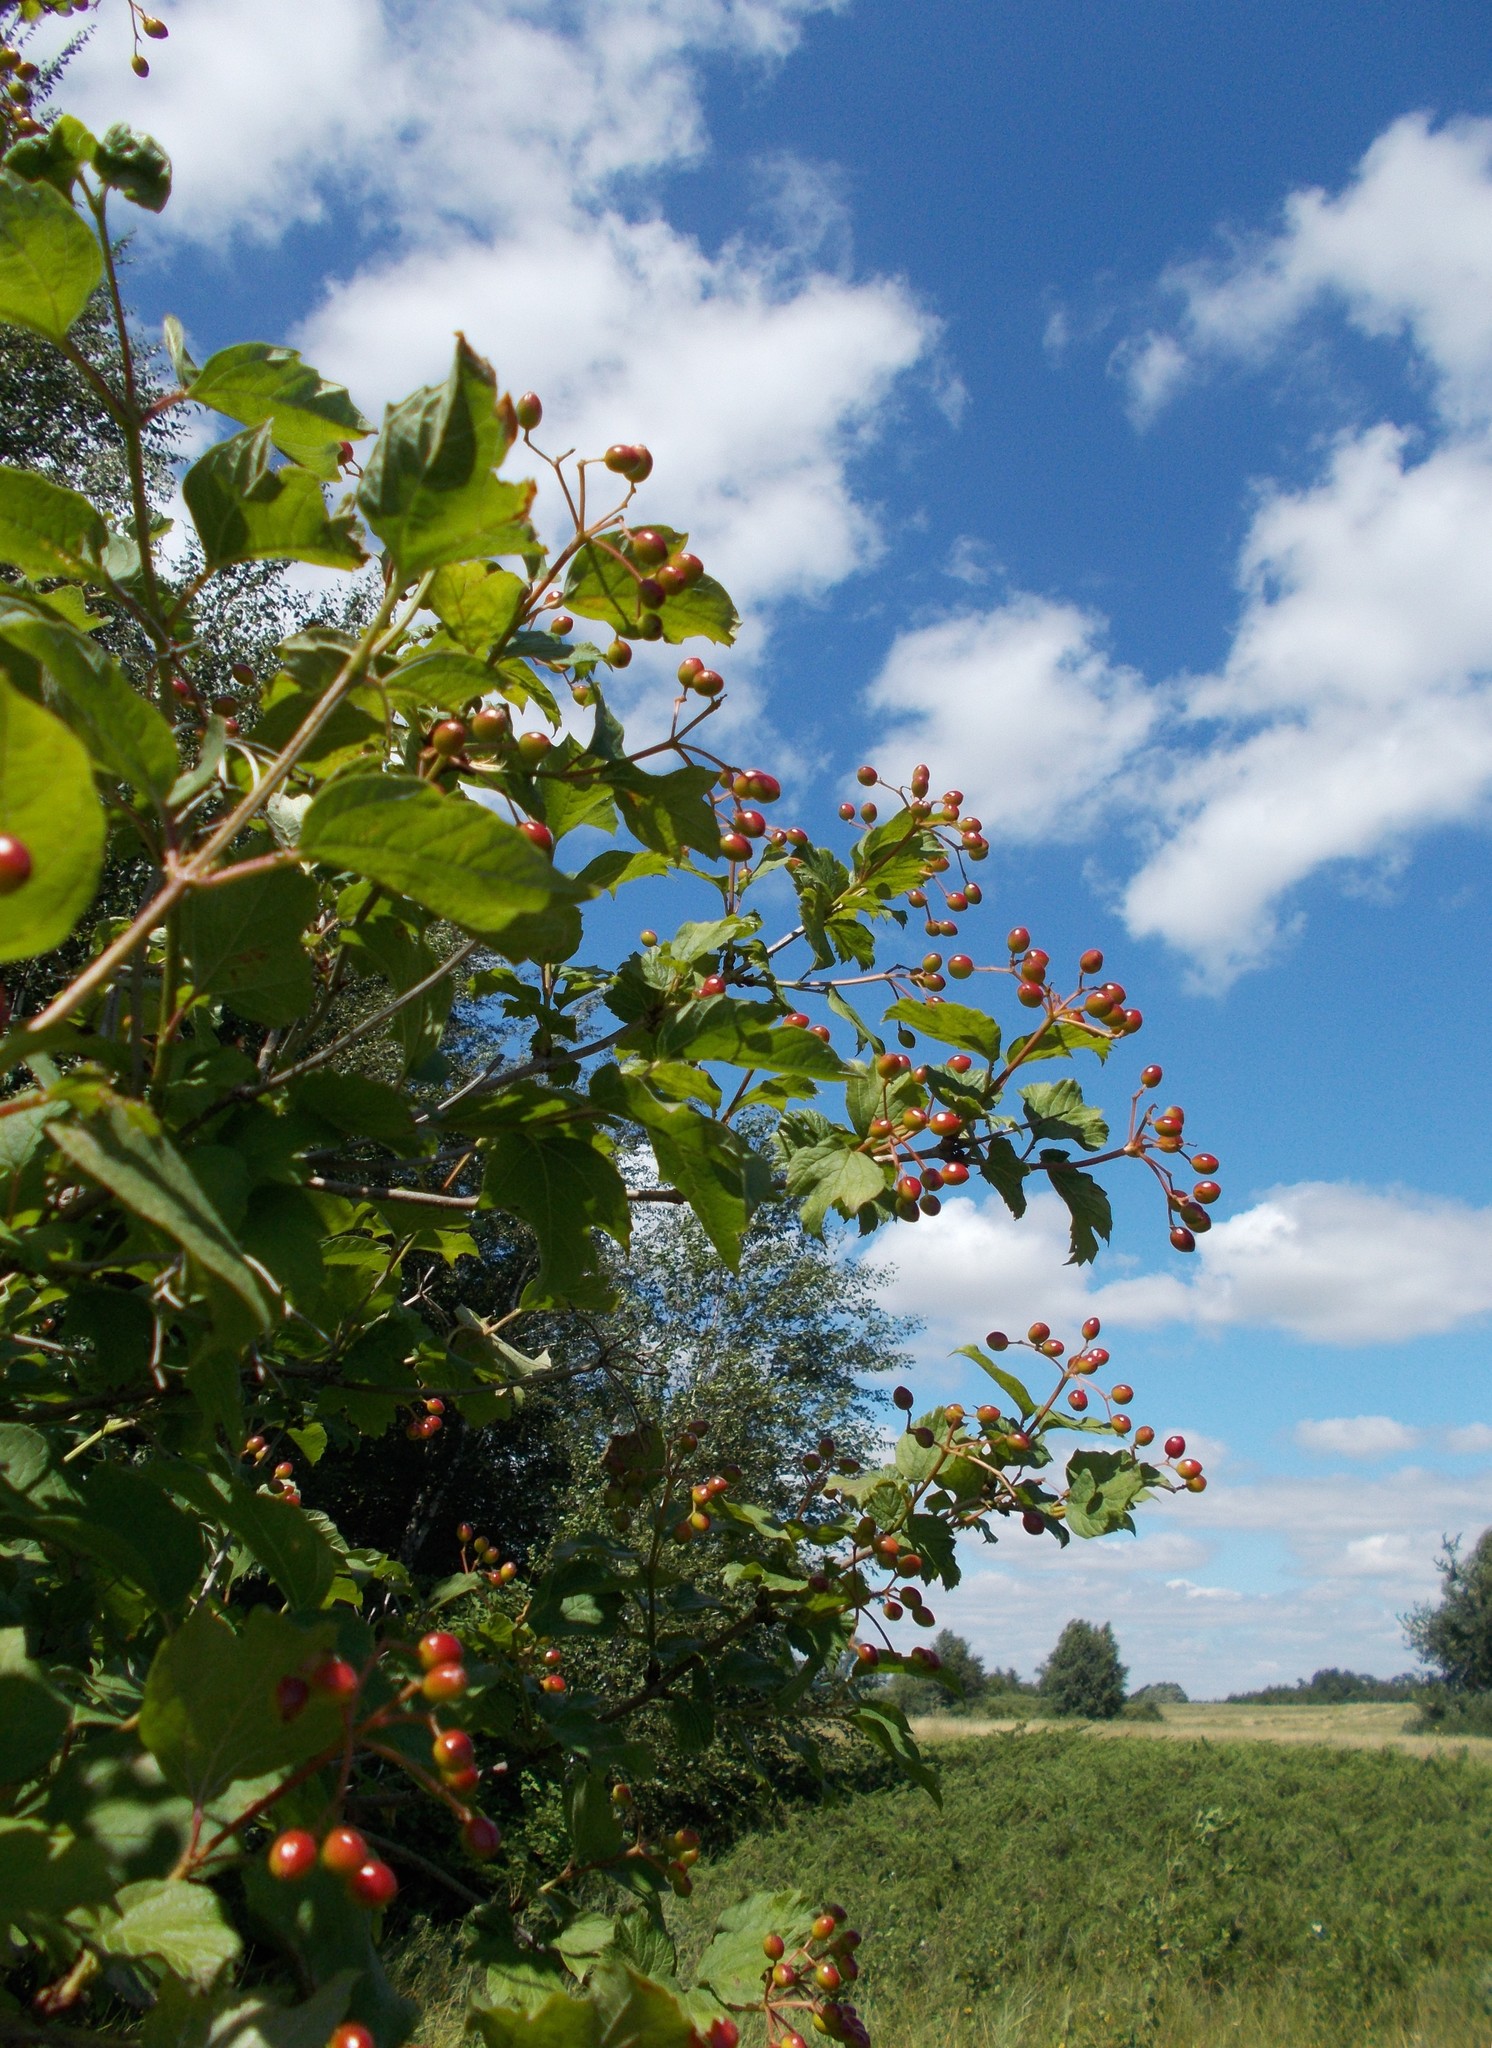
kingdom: Plantae
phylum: Tracheophyta
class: Magnoliopsida
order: Dipsacales
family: Viburnaceae
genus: Viburnum
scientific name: Viburnum opulus
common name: Guelder-rose
